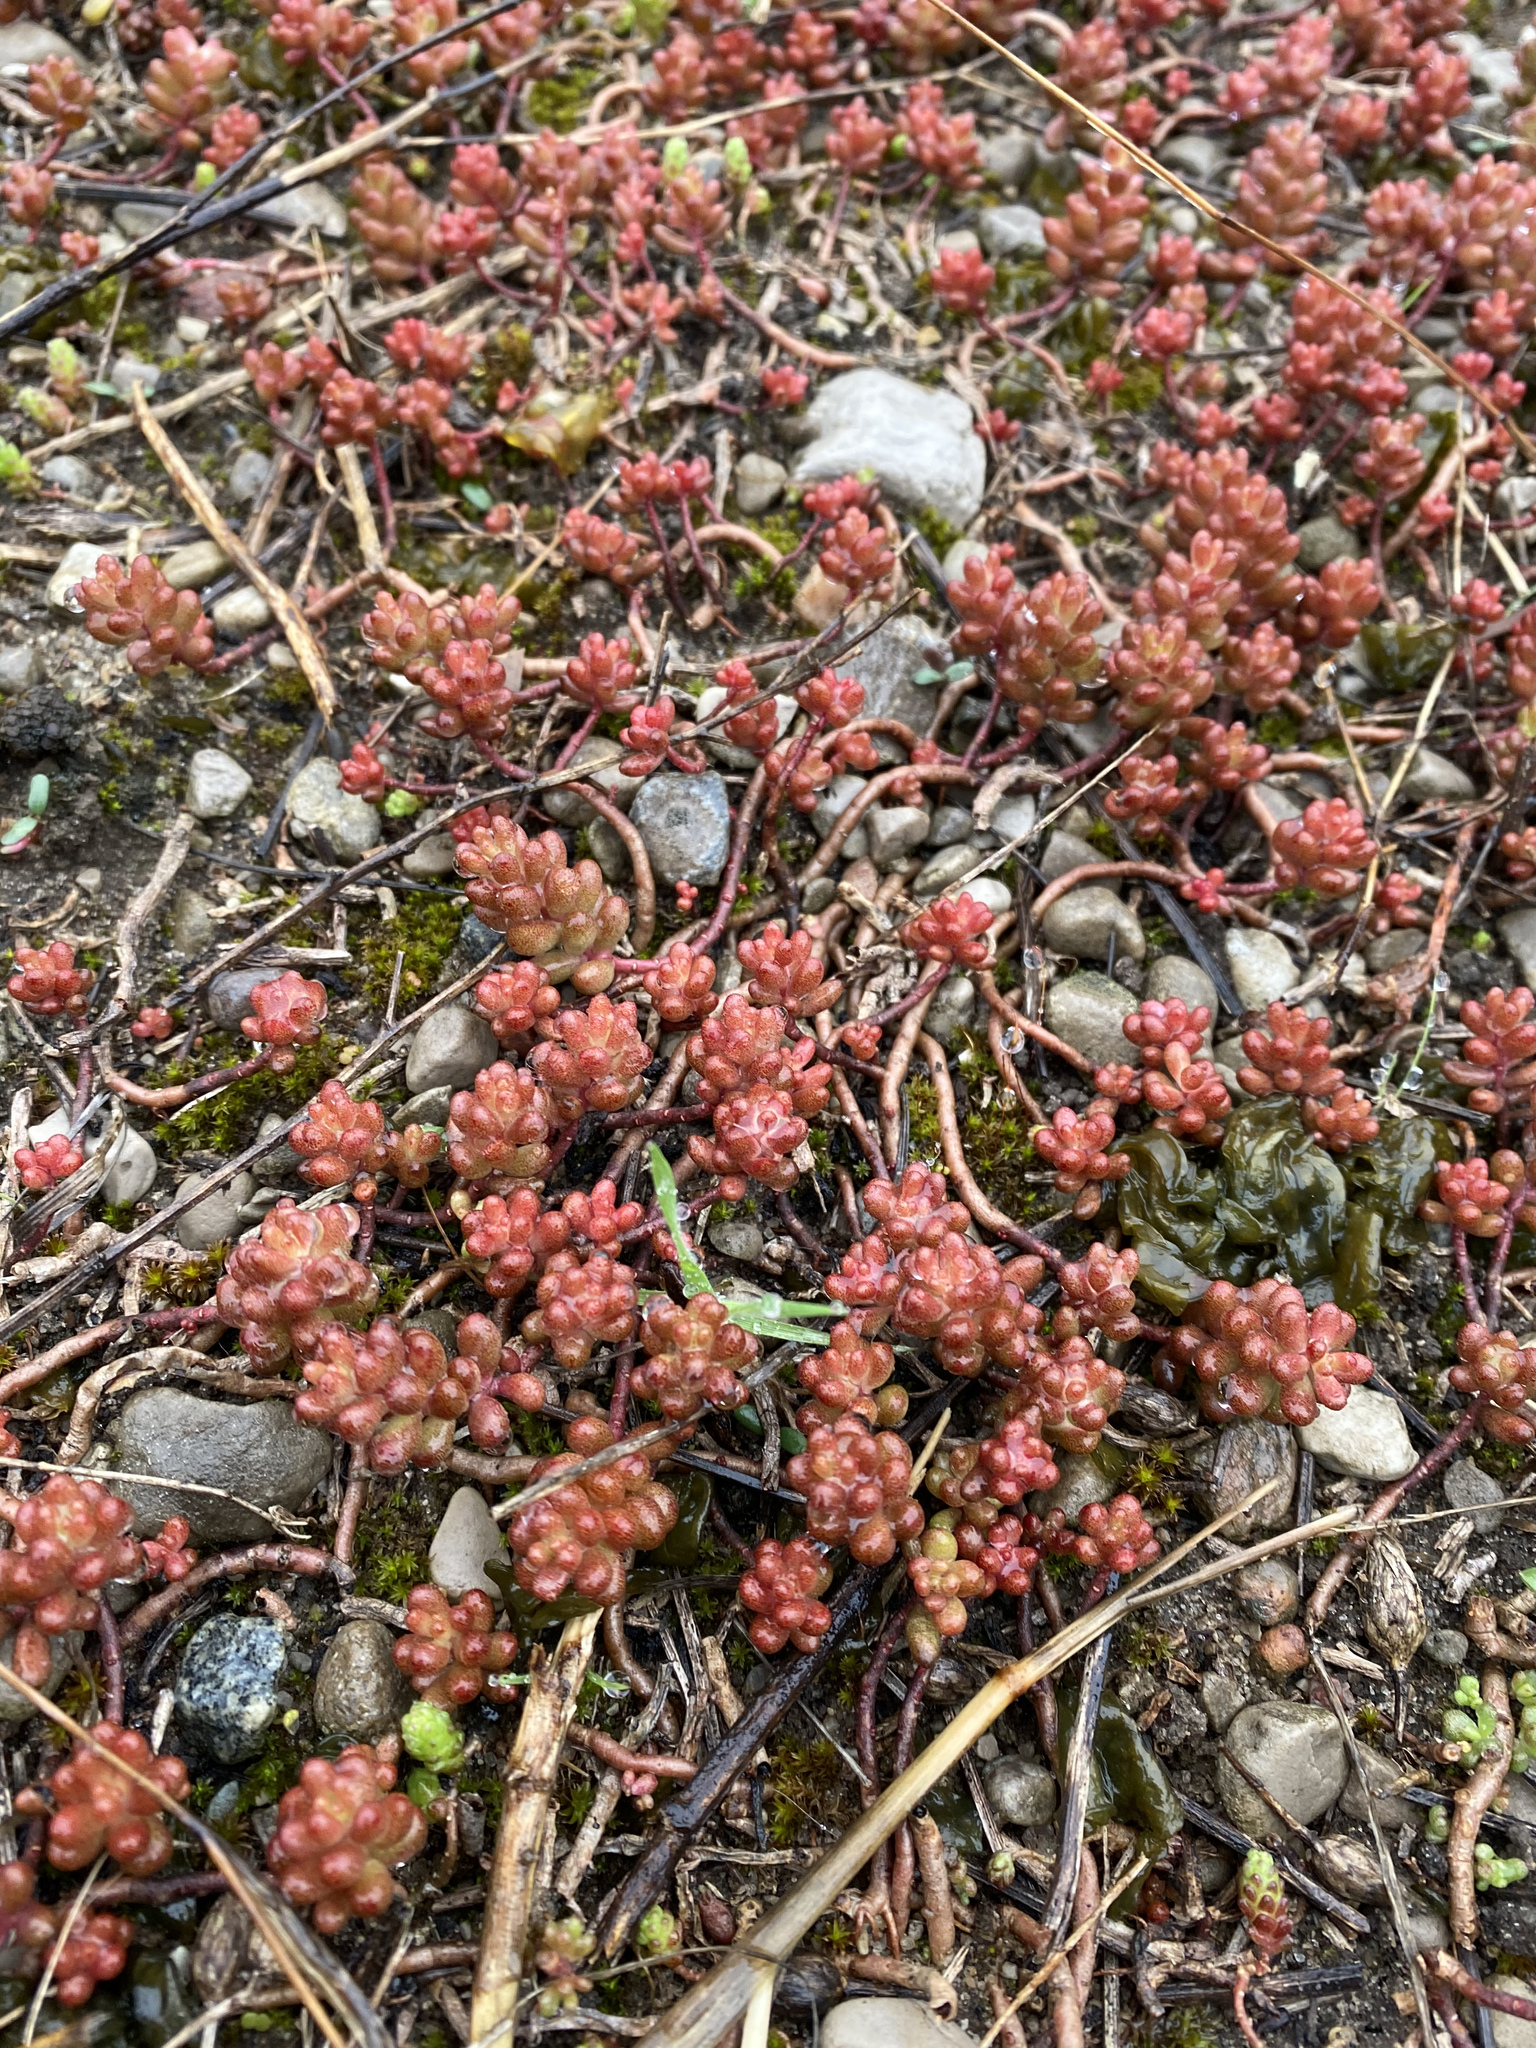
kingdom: Plantae
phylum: Tracheophyta
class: Magnoliopsida
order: Saxifragales
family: Crassulaceae
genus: Sedum
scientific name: Sedum album
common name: White stonecrop
